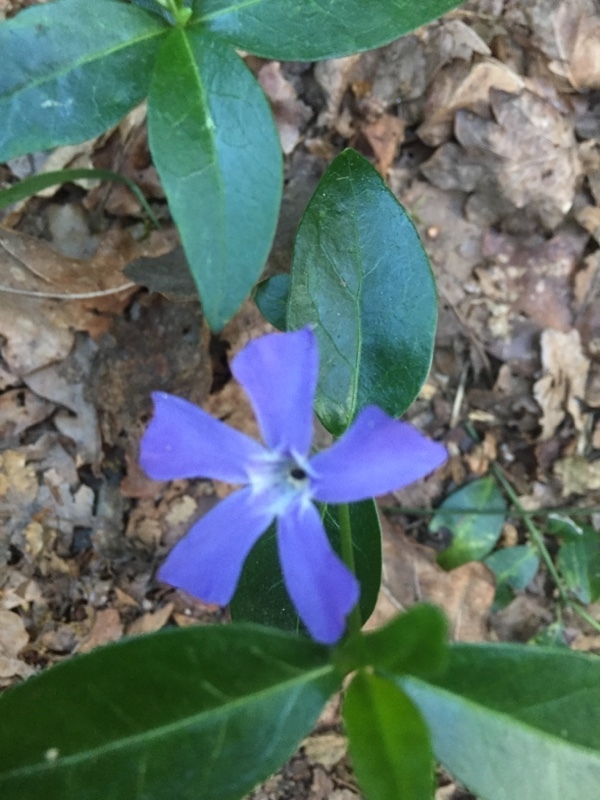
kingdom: Plantae
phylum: Tracheophyta
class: Magnoliopsida
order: Gentianales
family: Apocynaceae
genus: Vinca
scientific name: Vinca minor
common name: Lesser periwinkle
